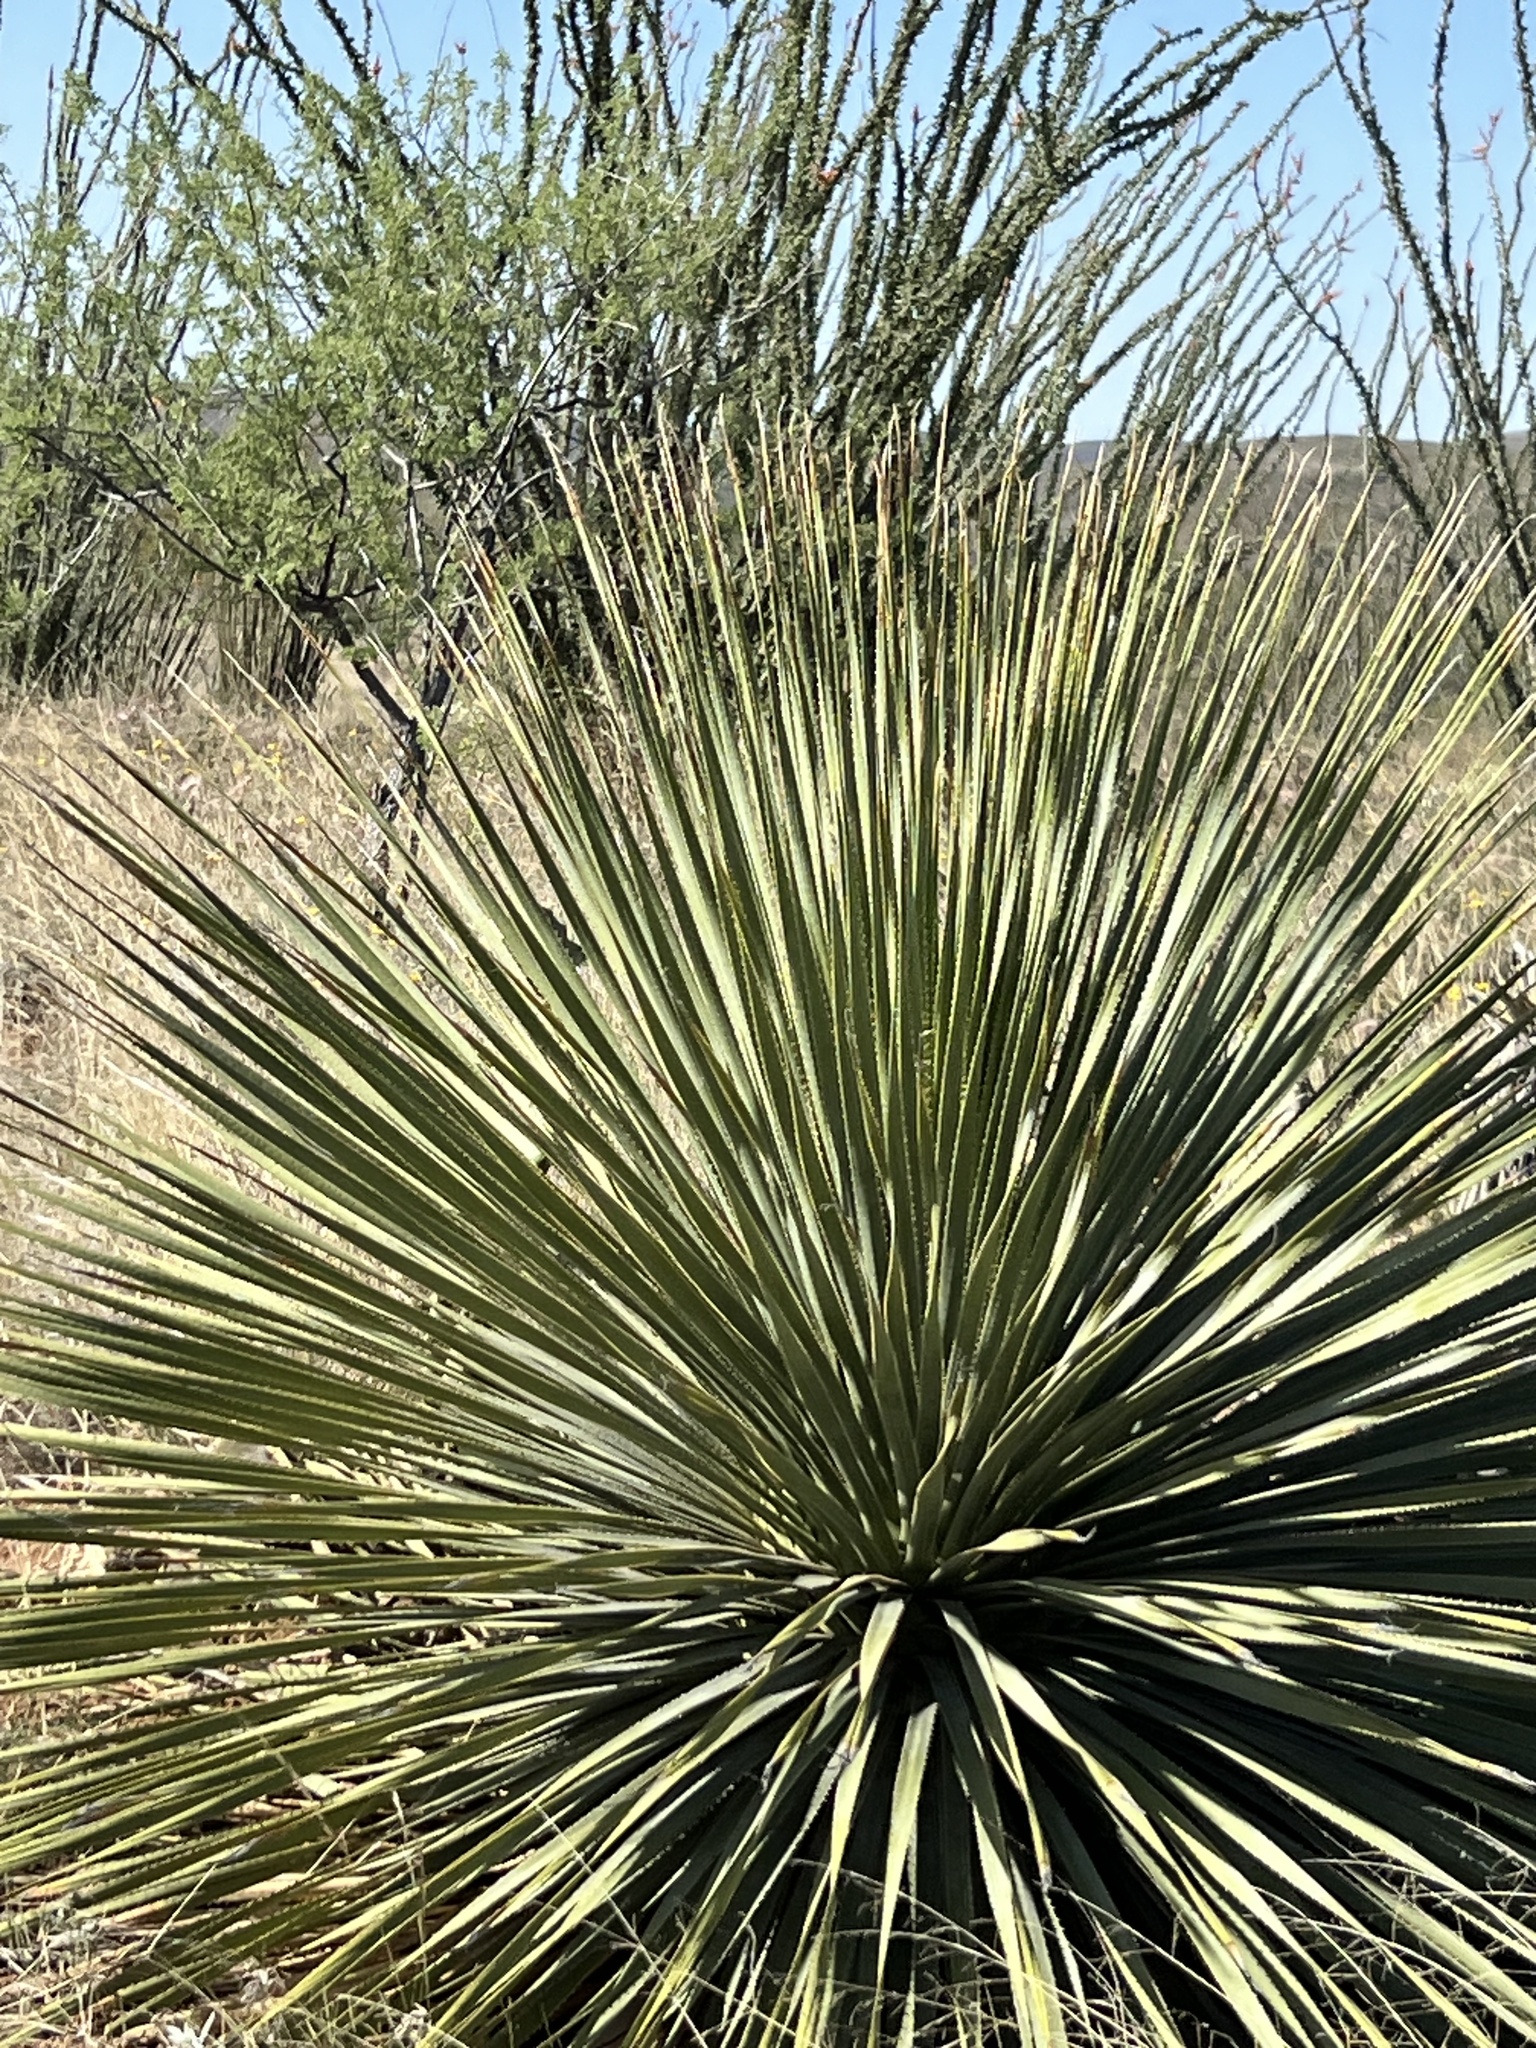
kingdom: Plantae
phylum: Tracheophyta
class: Liliopsida
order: Asparagales
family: Asparagaceae
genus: Dasylirion
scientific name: Dasylirion wheeleri
